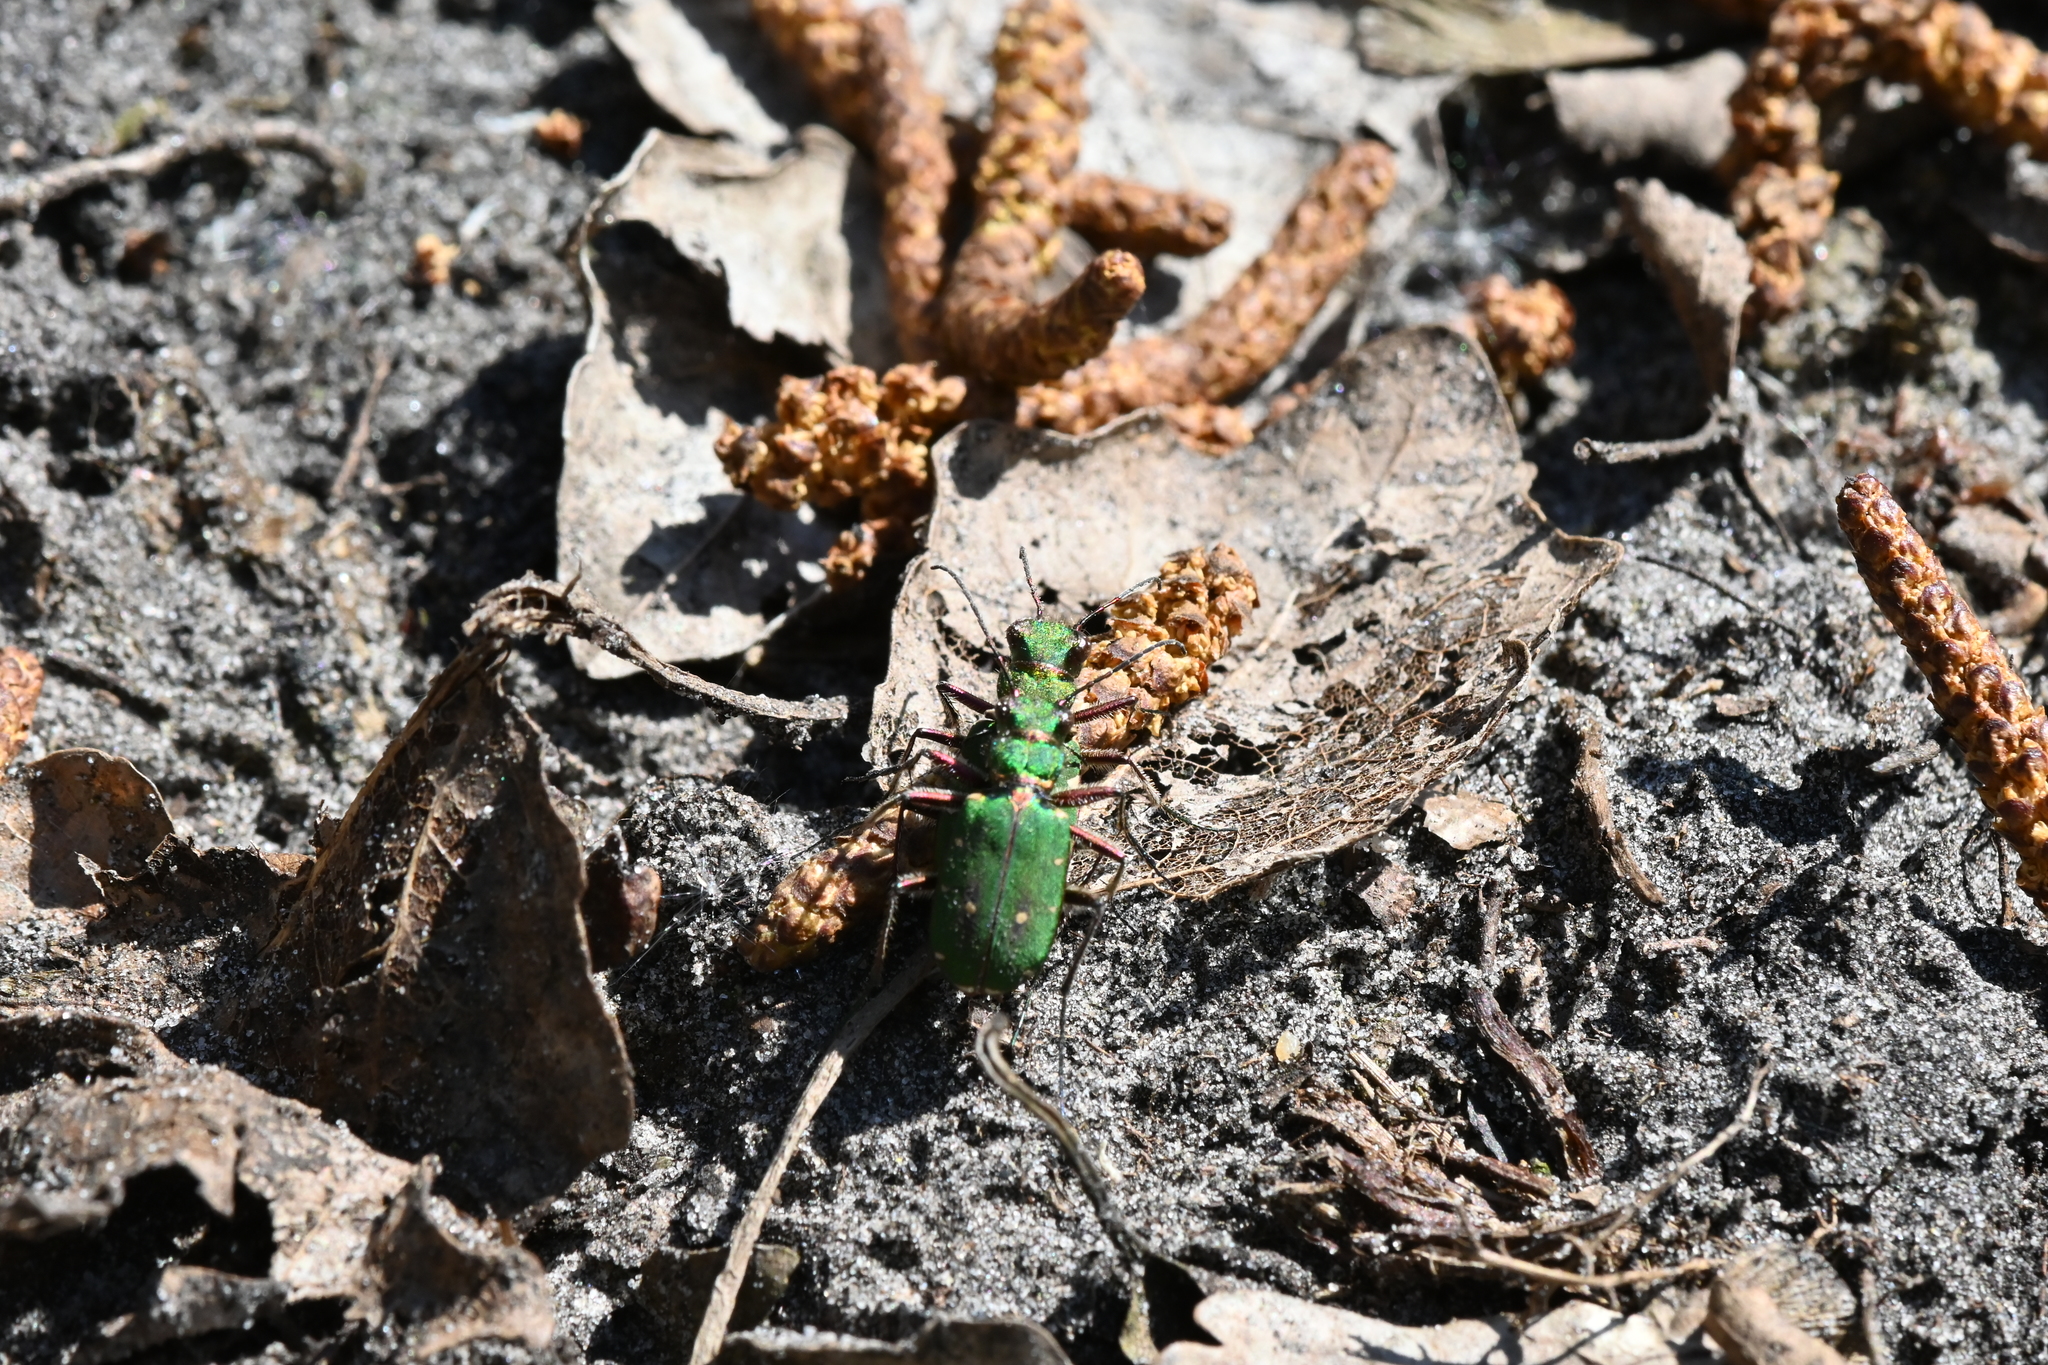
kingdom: Animalia
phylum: Arthropoda
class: Insecta
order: Coleoptera
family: Carabidae
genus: Cicindela
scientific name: Cicindela campestris
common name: Common tiger beetle
